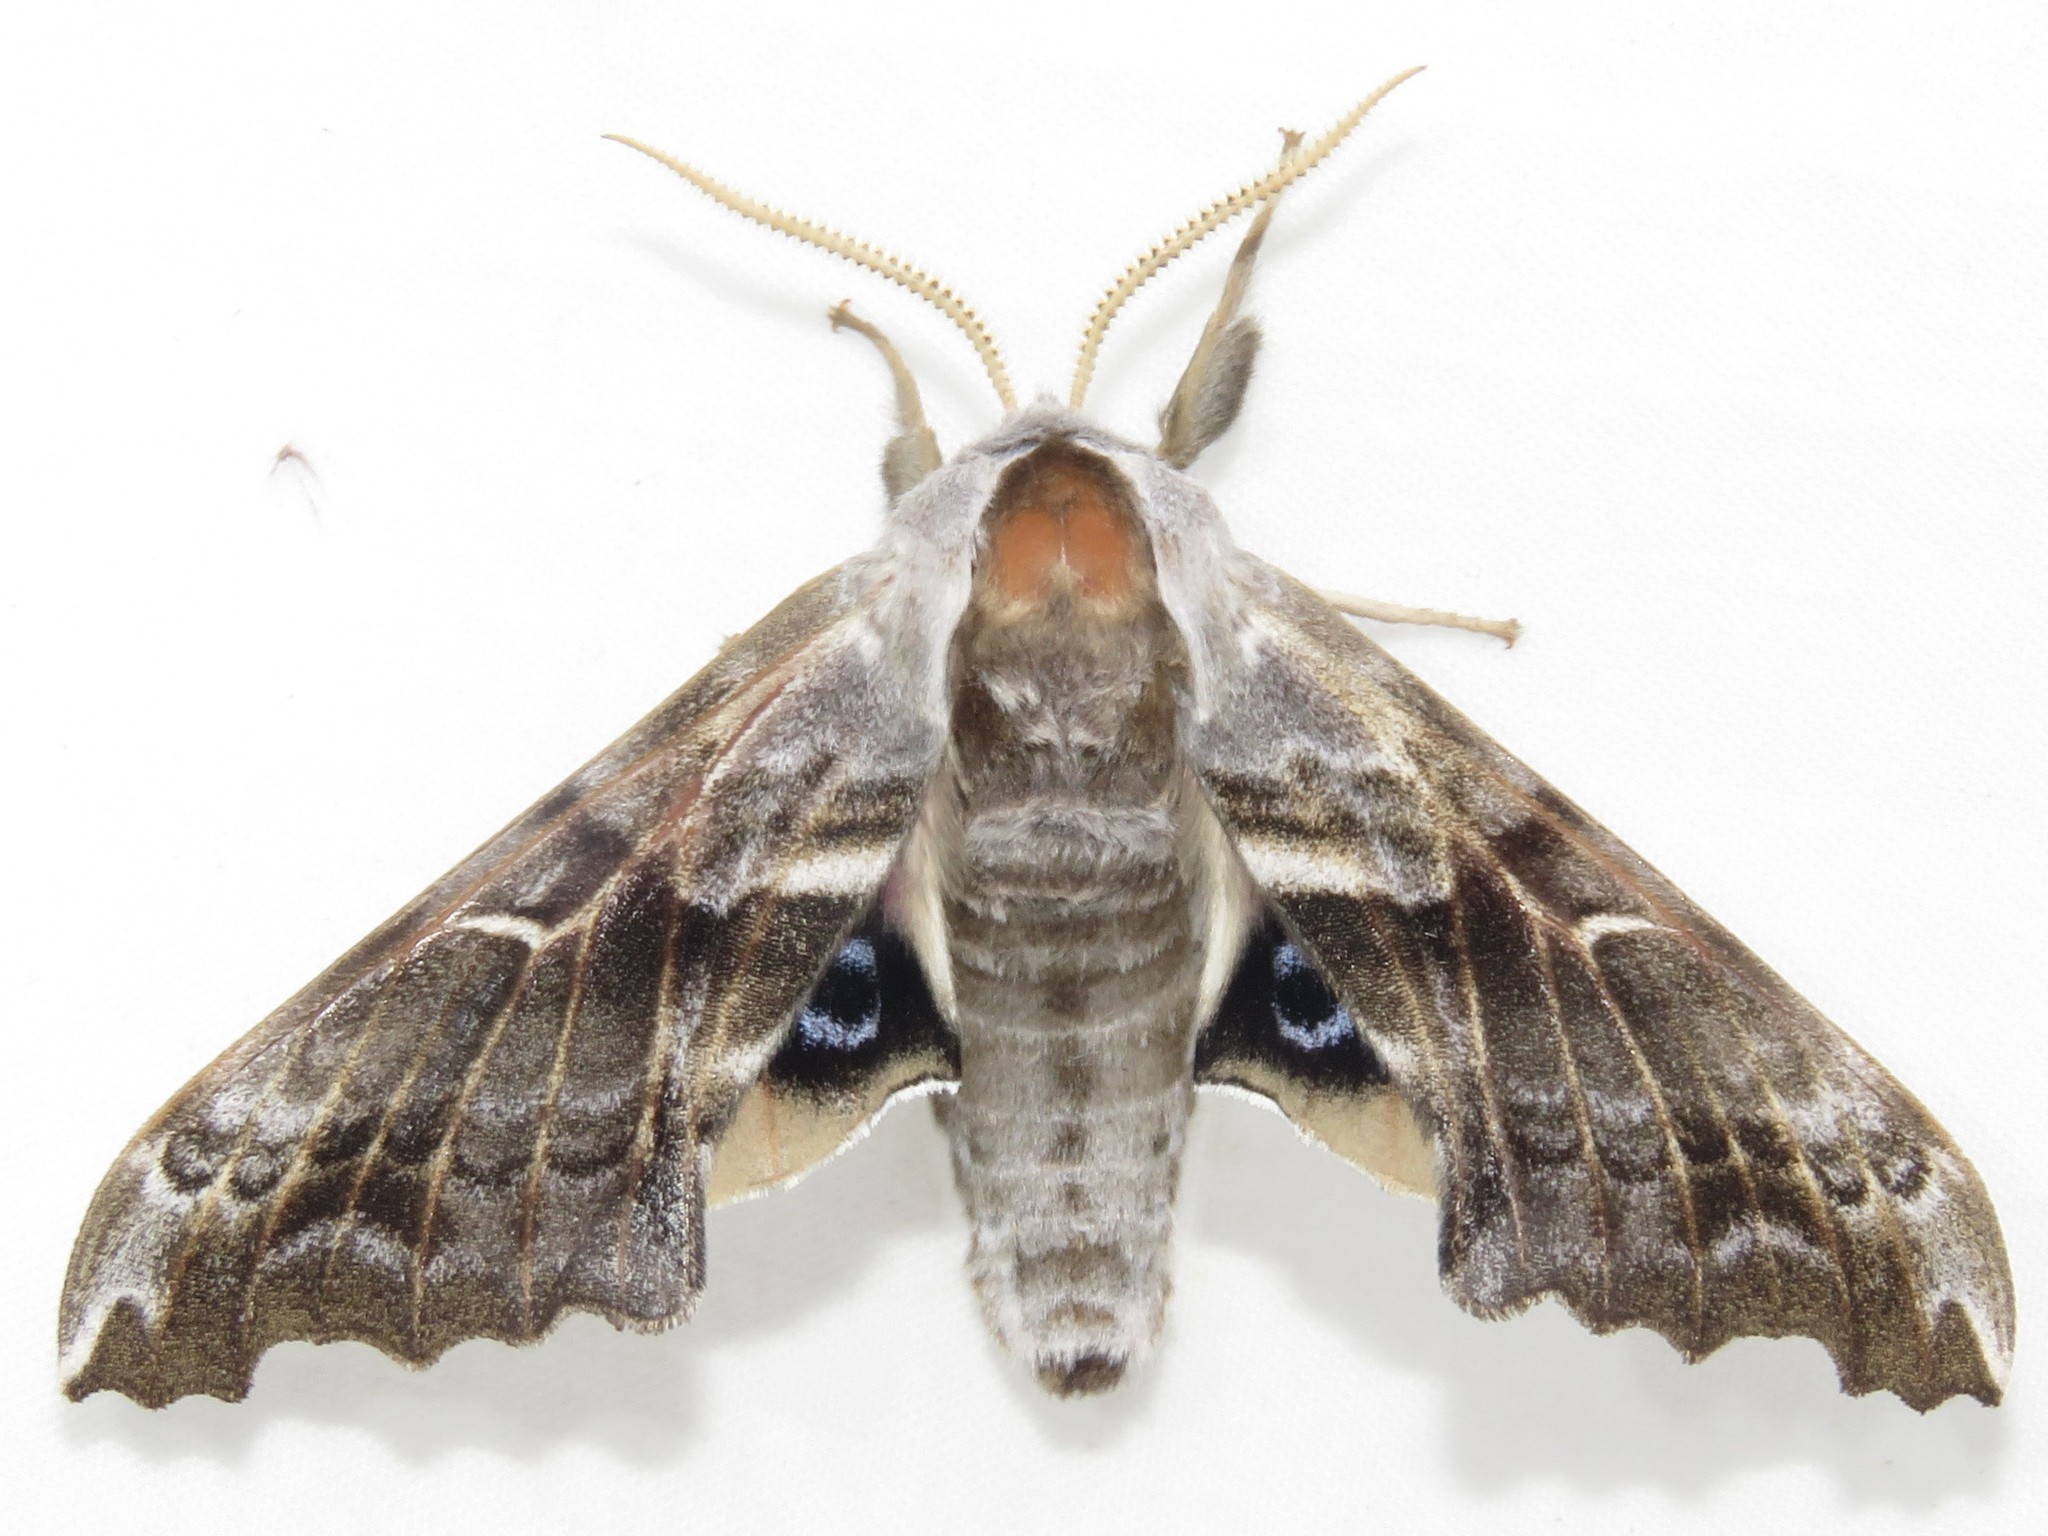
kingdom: Animalia
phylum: Arthropoda
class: Insecta
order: Lepidoptera
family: Sphingidae
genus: Smerinthus
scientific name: Smerinthus cerisyi
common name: Cerisy's sphinx moth
